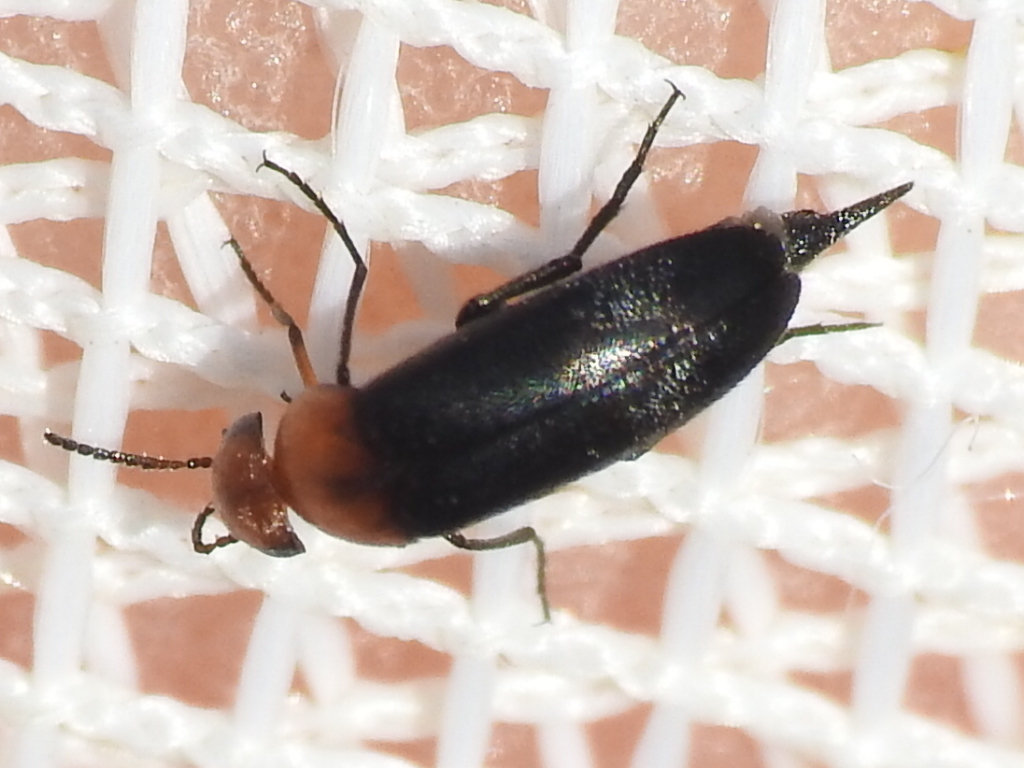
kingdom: Animalia
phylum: Arthropoda
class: Insecta
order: Coleoptera
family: Mordellidae
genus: Mordellistena
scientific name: Mordellistena cervicalis
